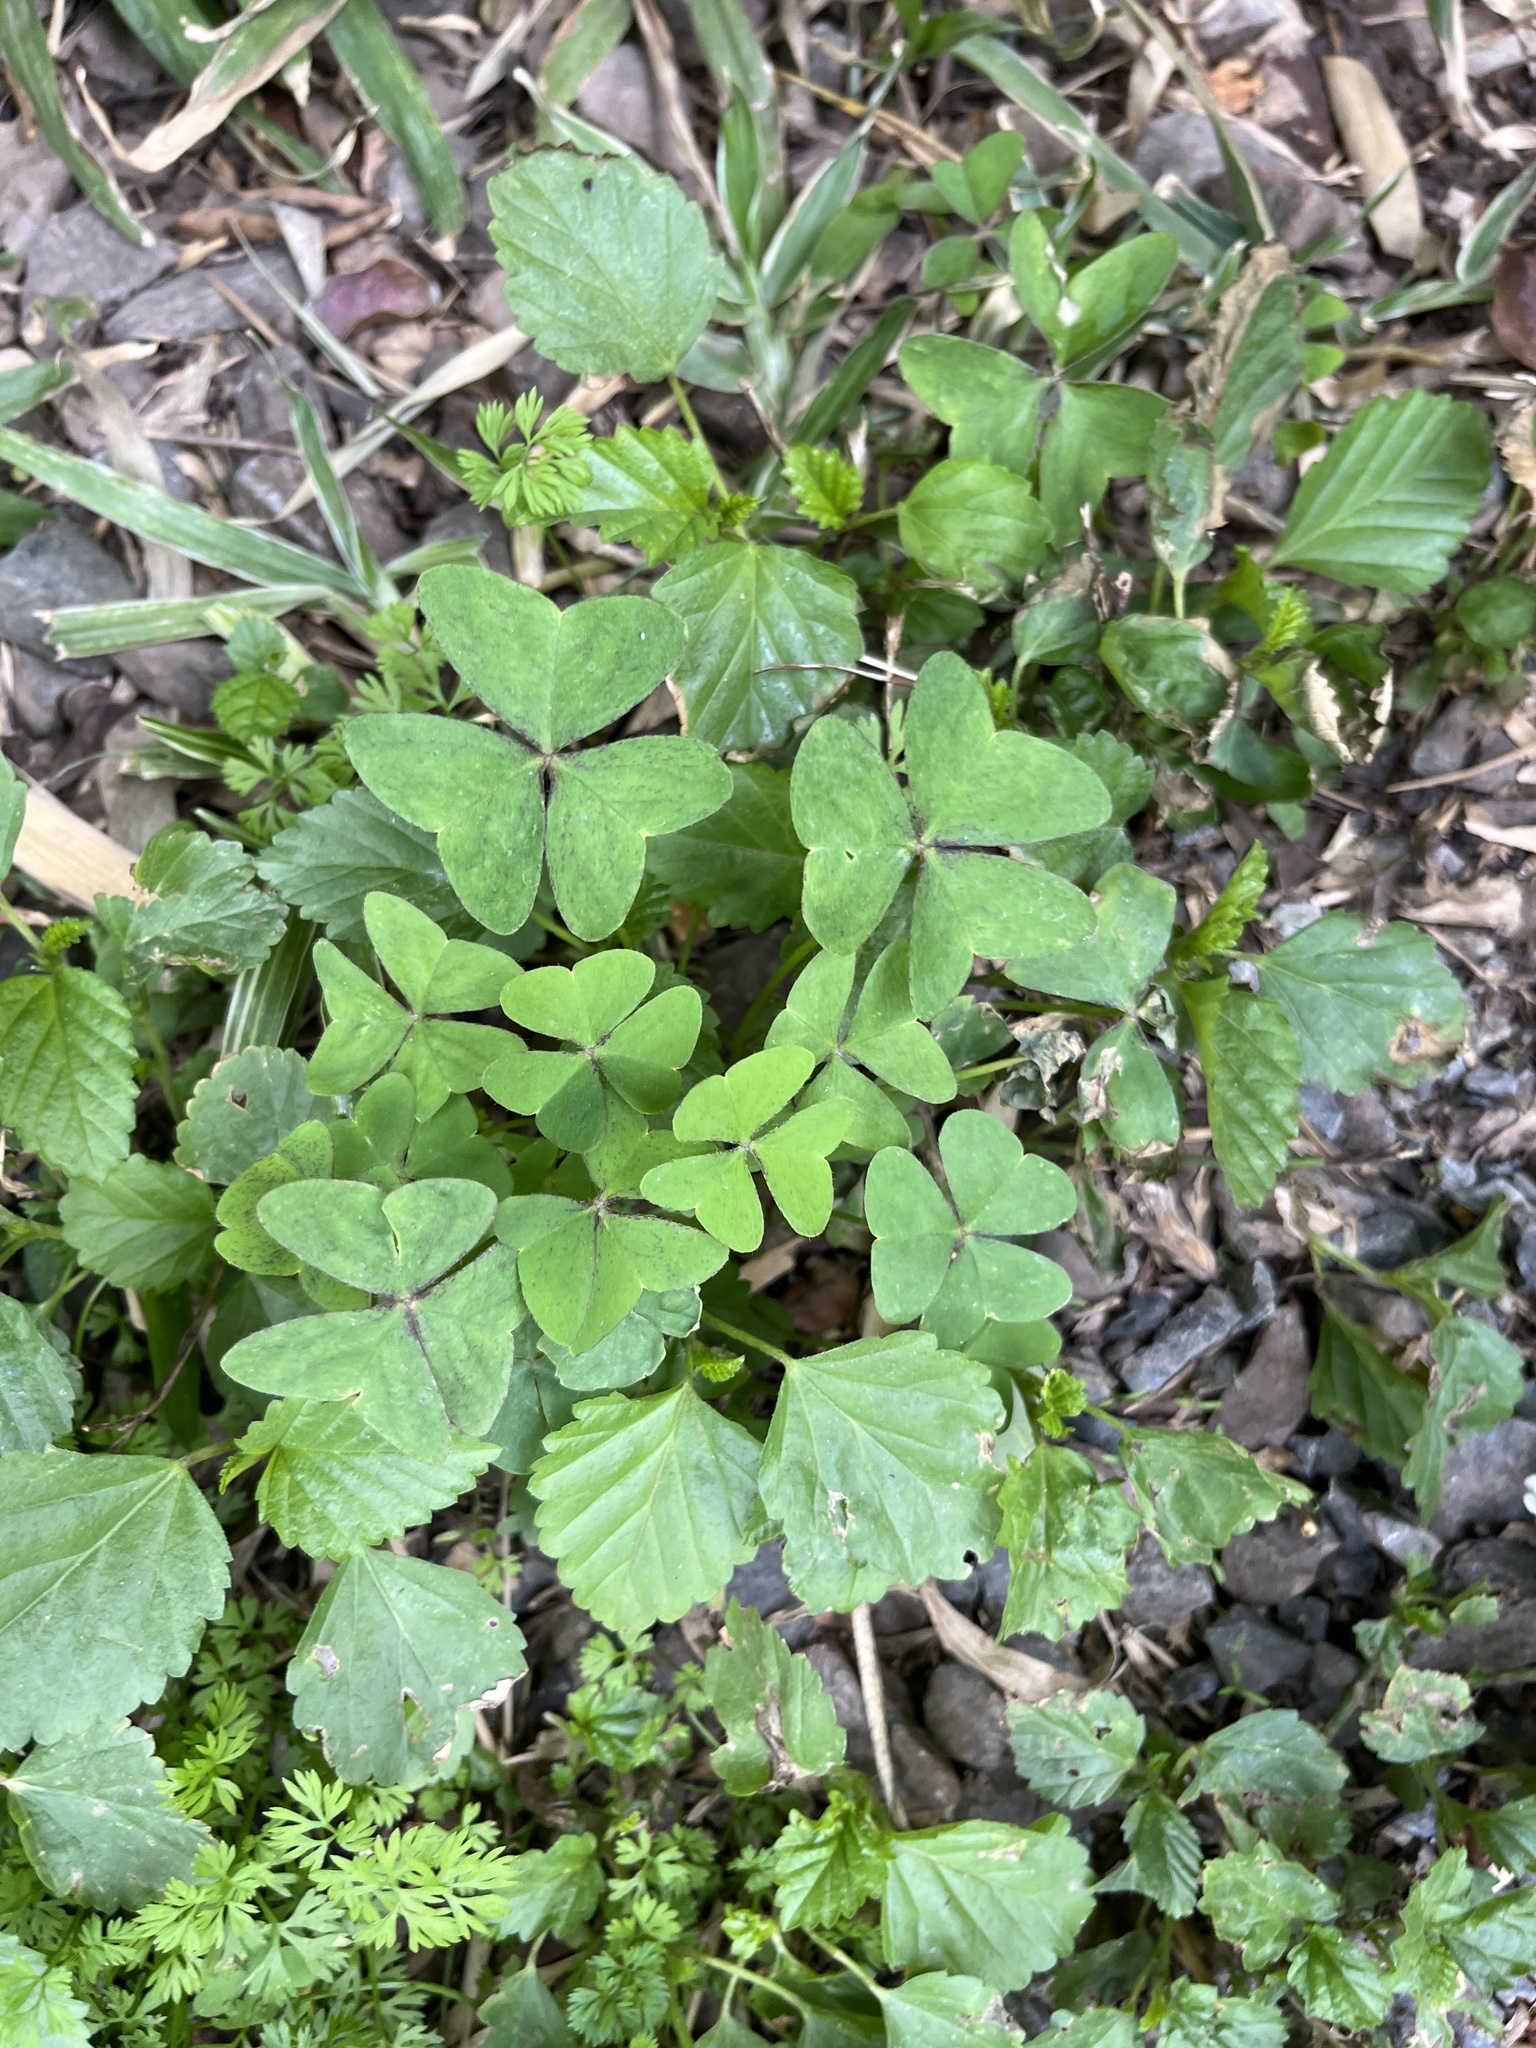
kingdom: Plantae
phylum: Tracheophyta
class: Magnoliopsida
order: Oxalidales
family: Oxalidaceae
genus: Oxalis
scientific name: Oxalis latifolia
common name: Garden pink-sorrel
